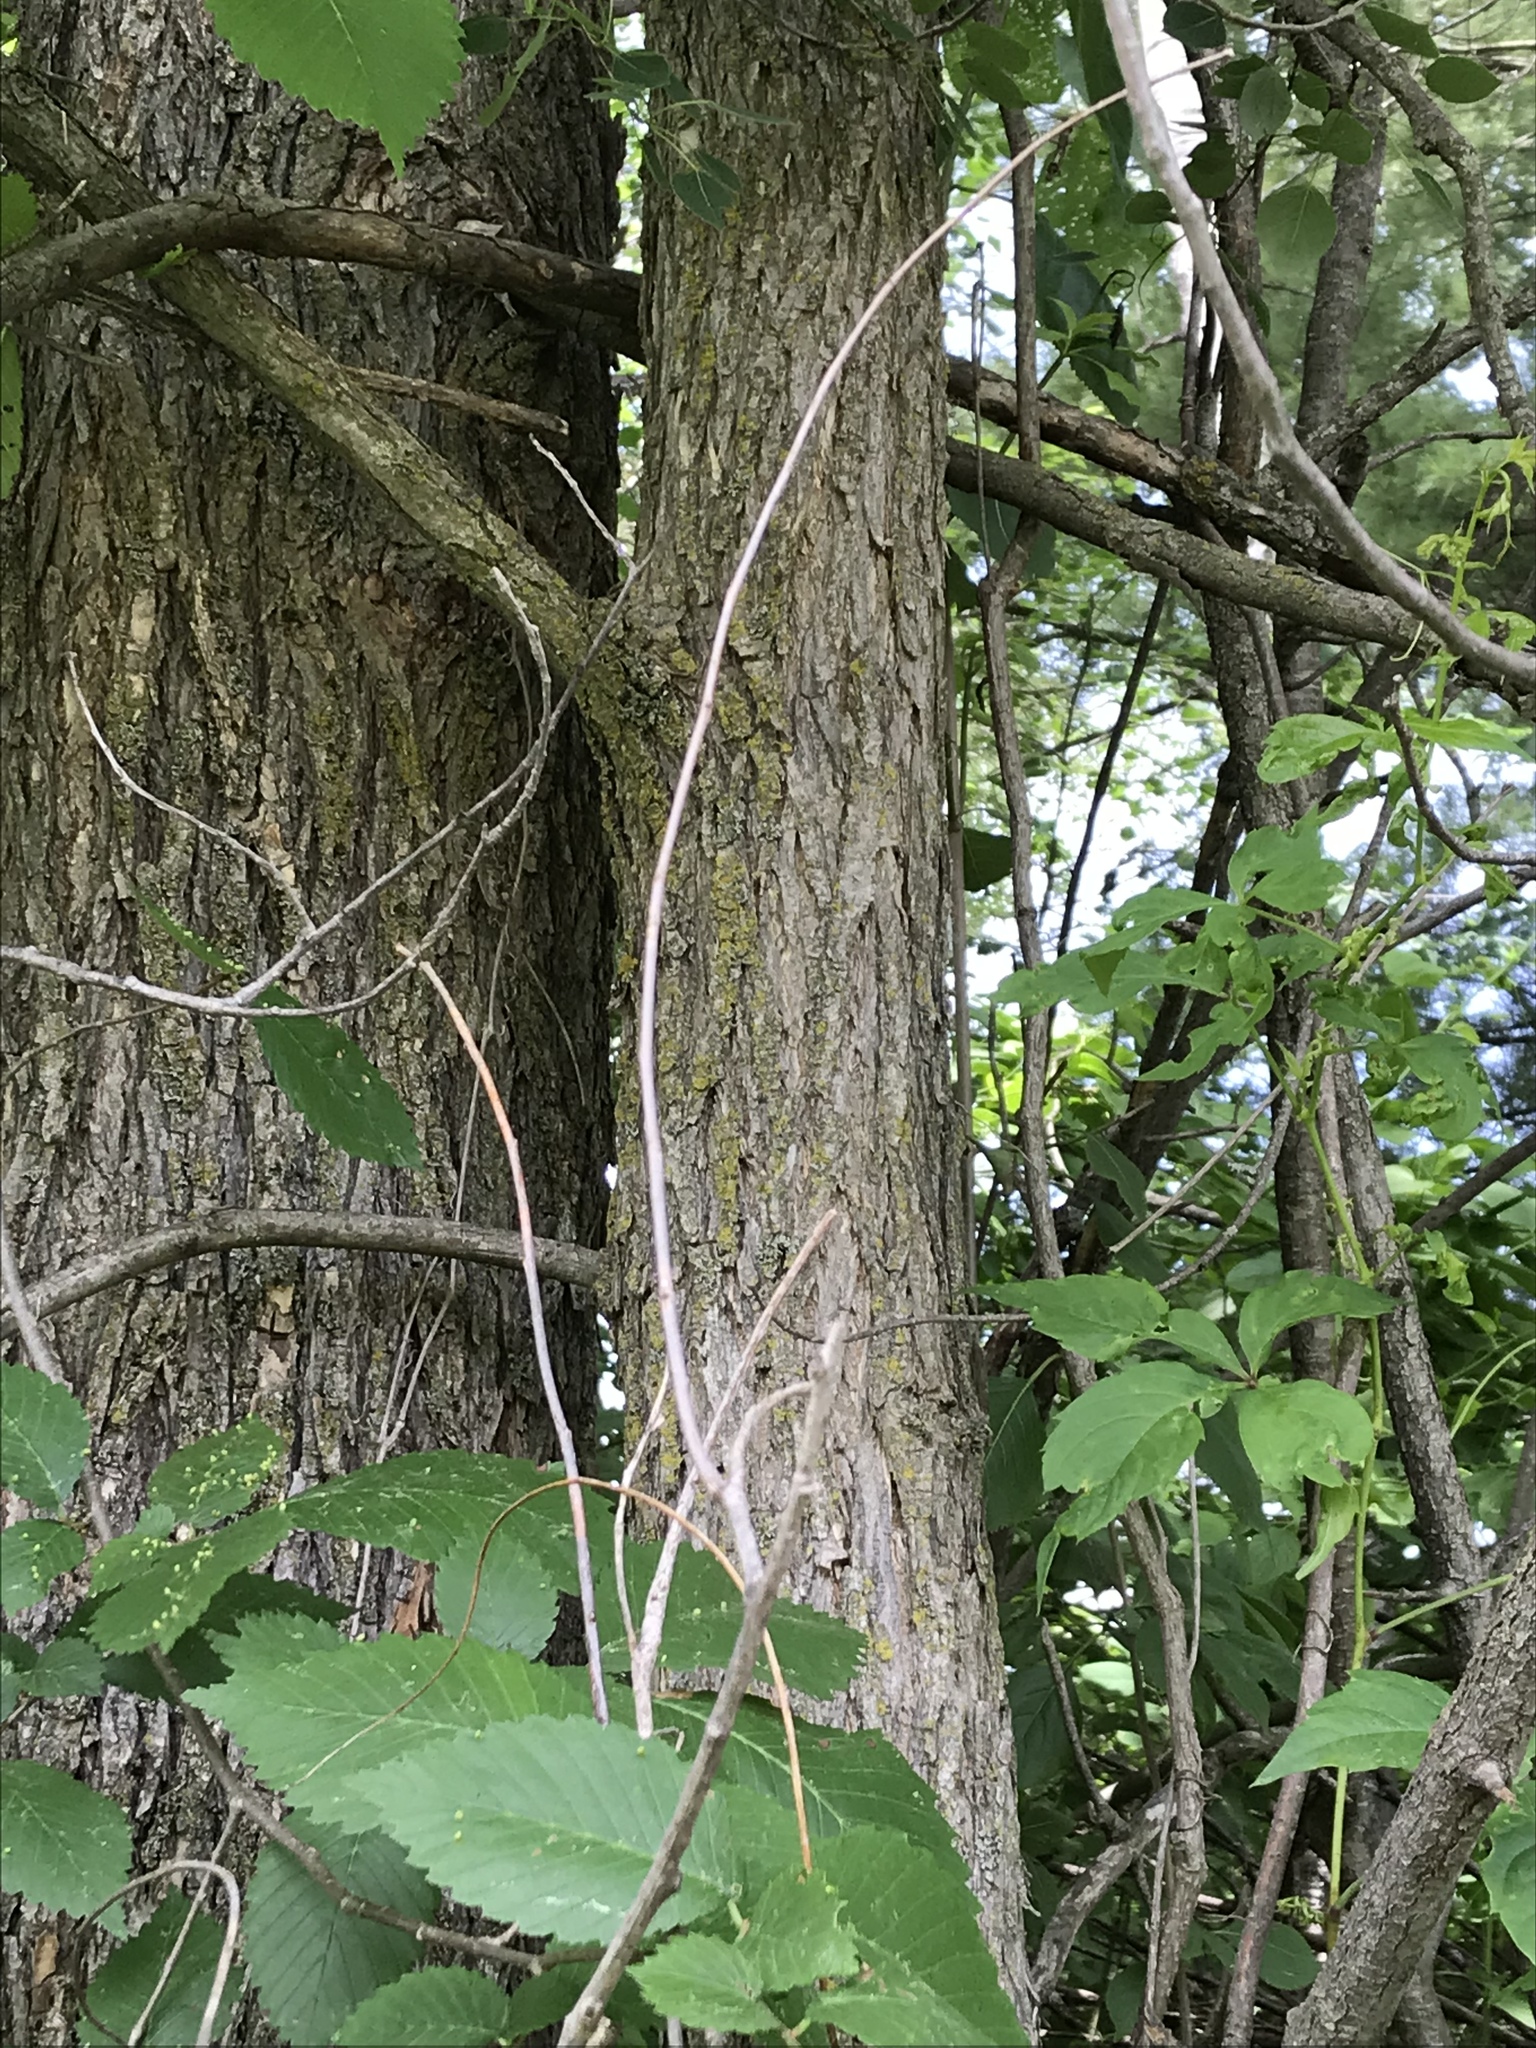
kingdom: Plantae
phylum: Tracheophyta
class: Magnoliopsida
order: Rosales
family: Ulmaceae
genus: Ulmus
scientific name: Ulmus americana
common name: American elm
